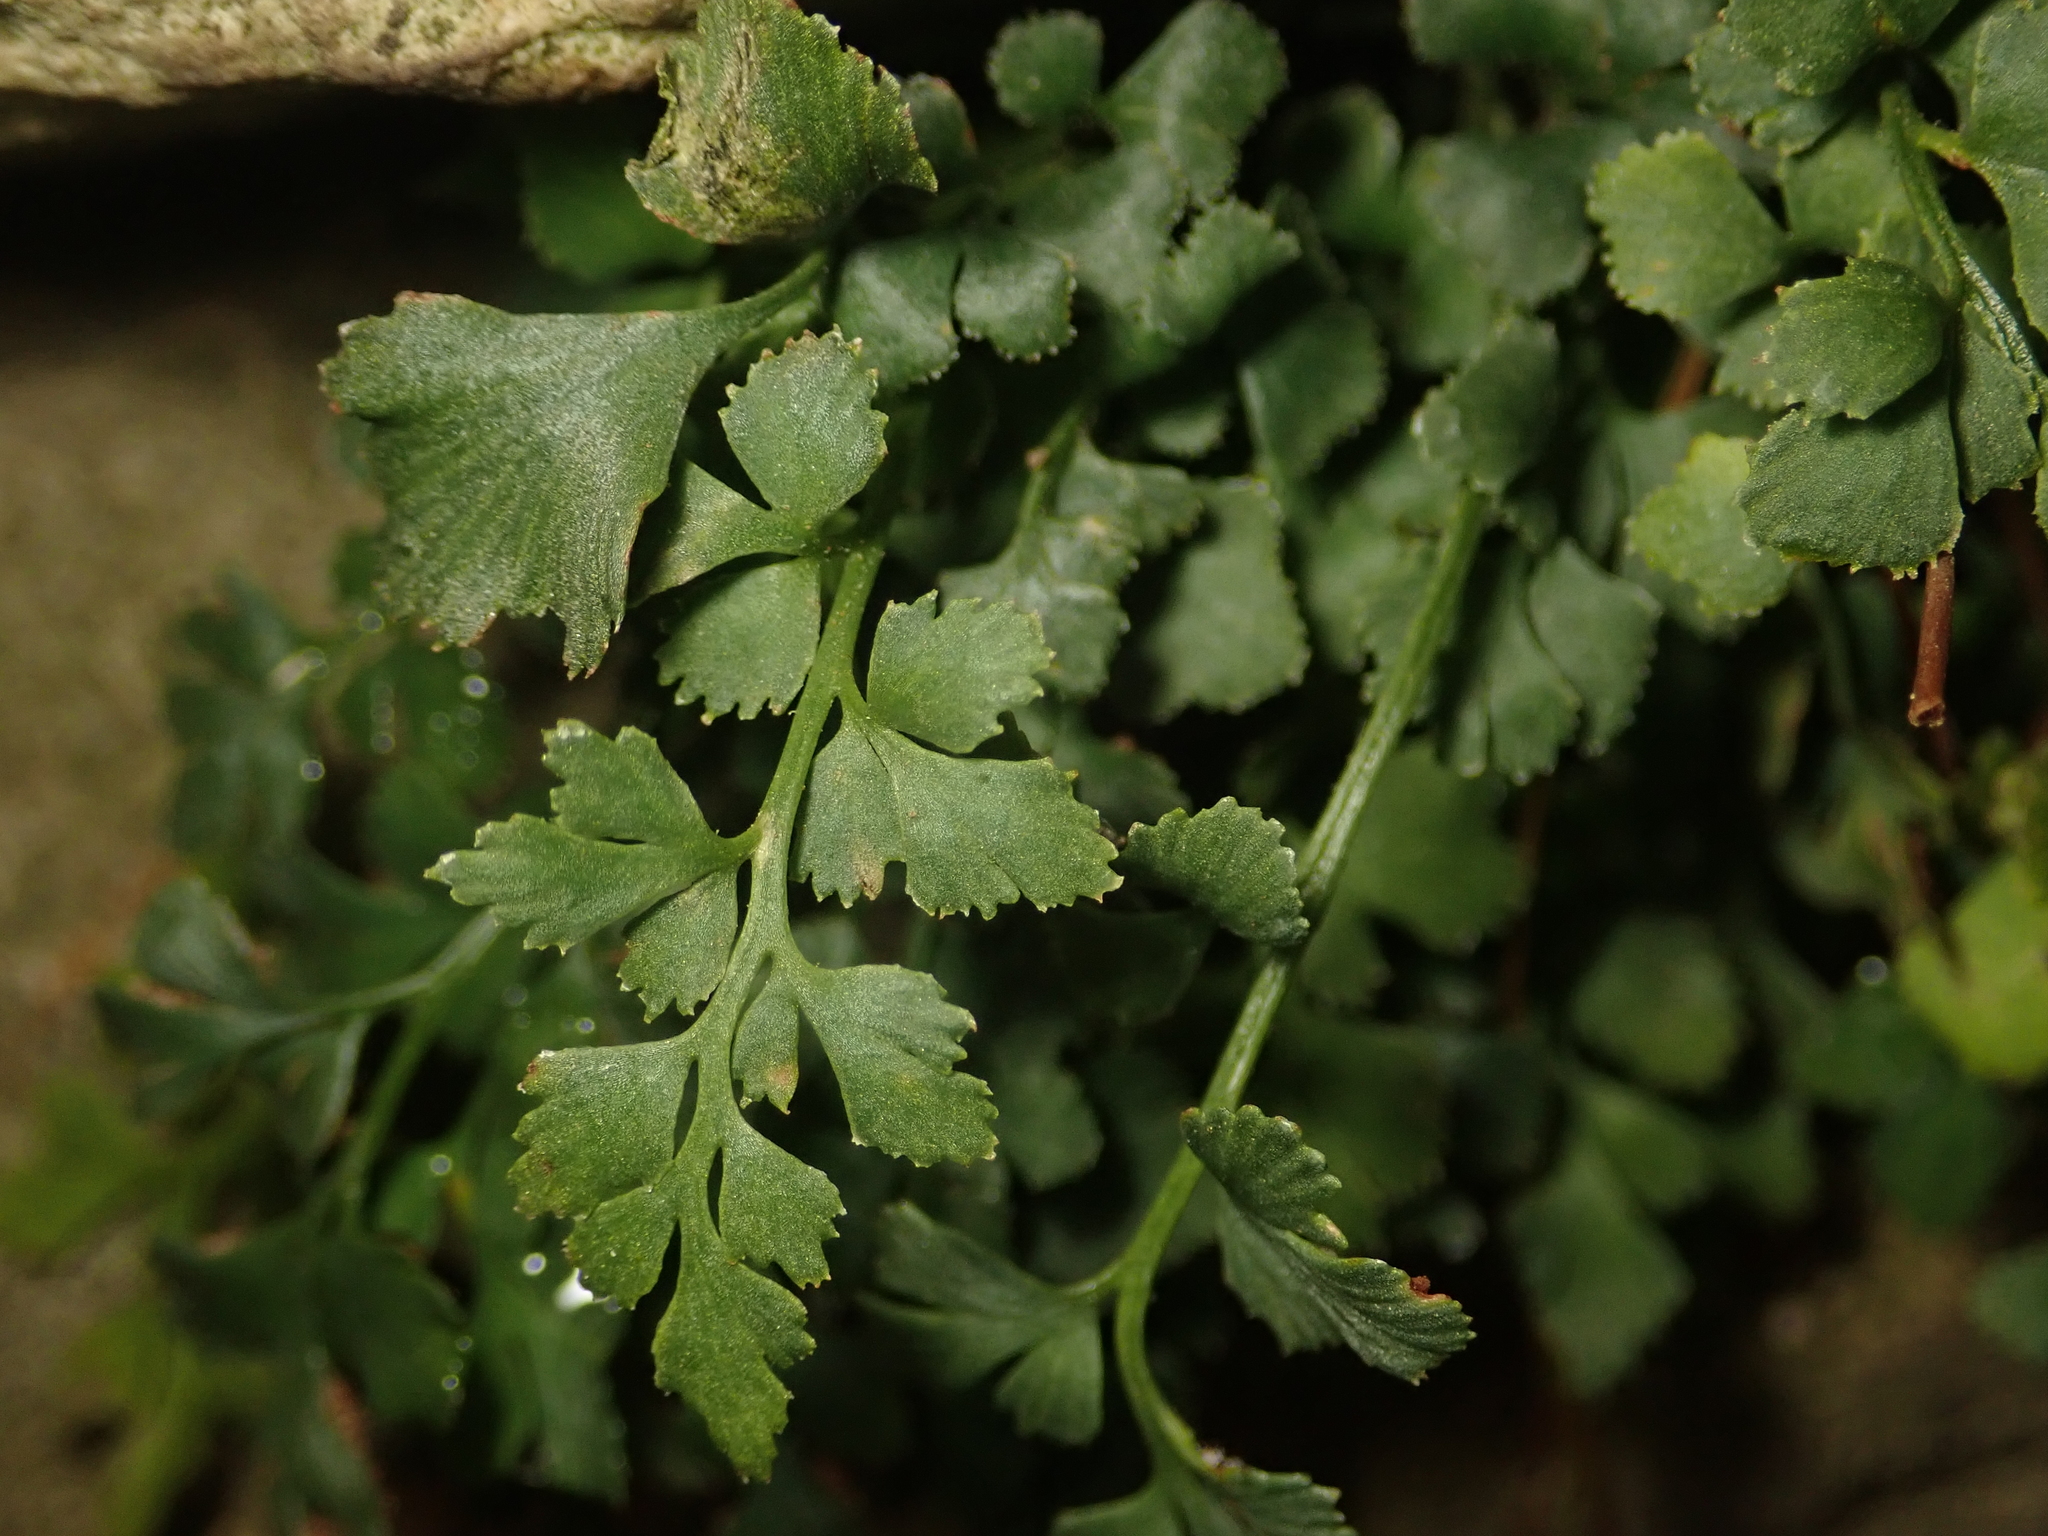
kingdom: Plantae
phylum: Tracheophyta
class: Polypodiopsida
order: Polypodiales
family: Aspleniaceae
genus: Asplenium
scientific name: Asplenium ruta-muraria
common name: Wall-rue
